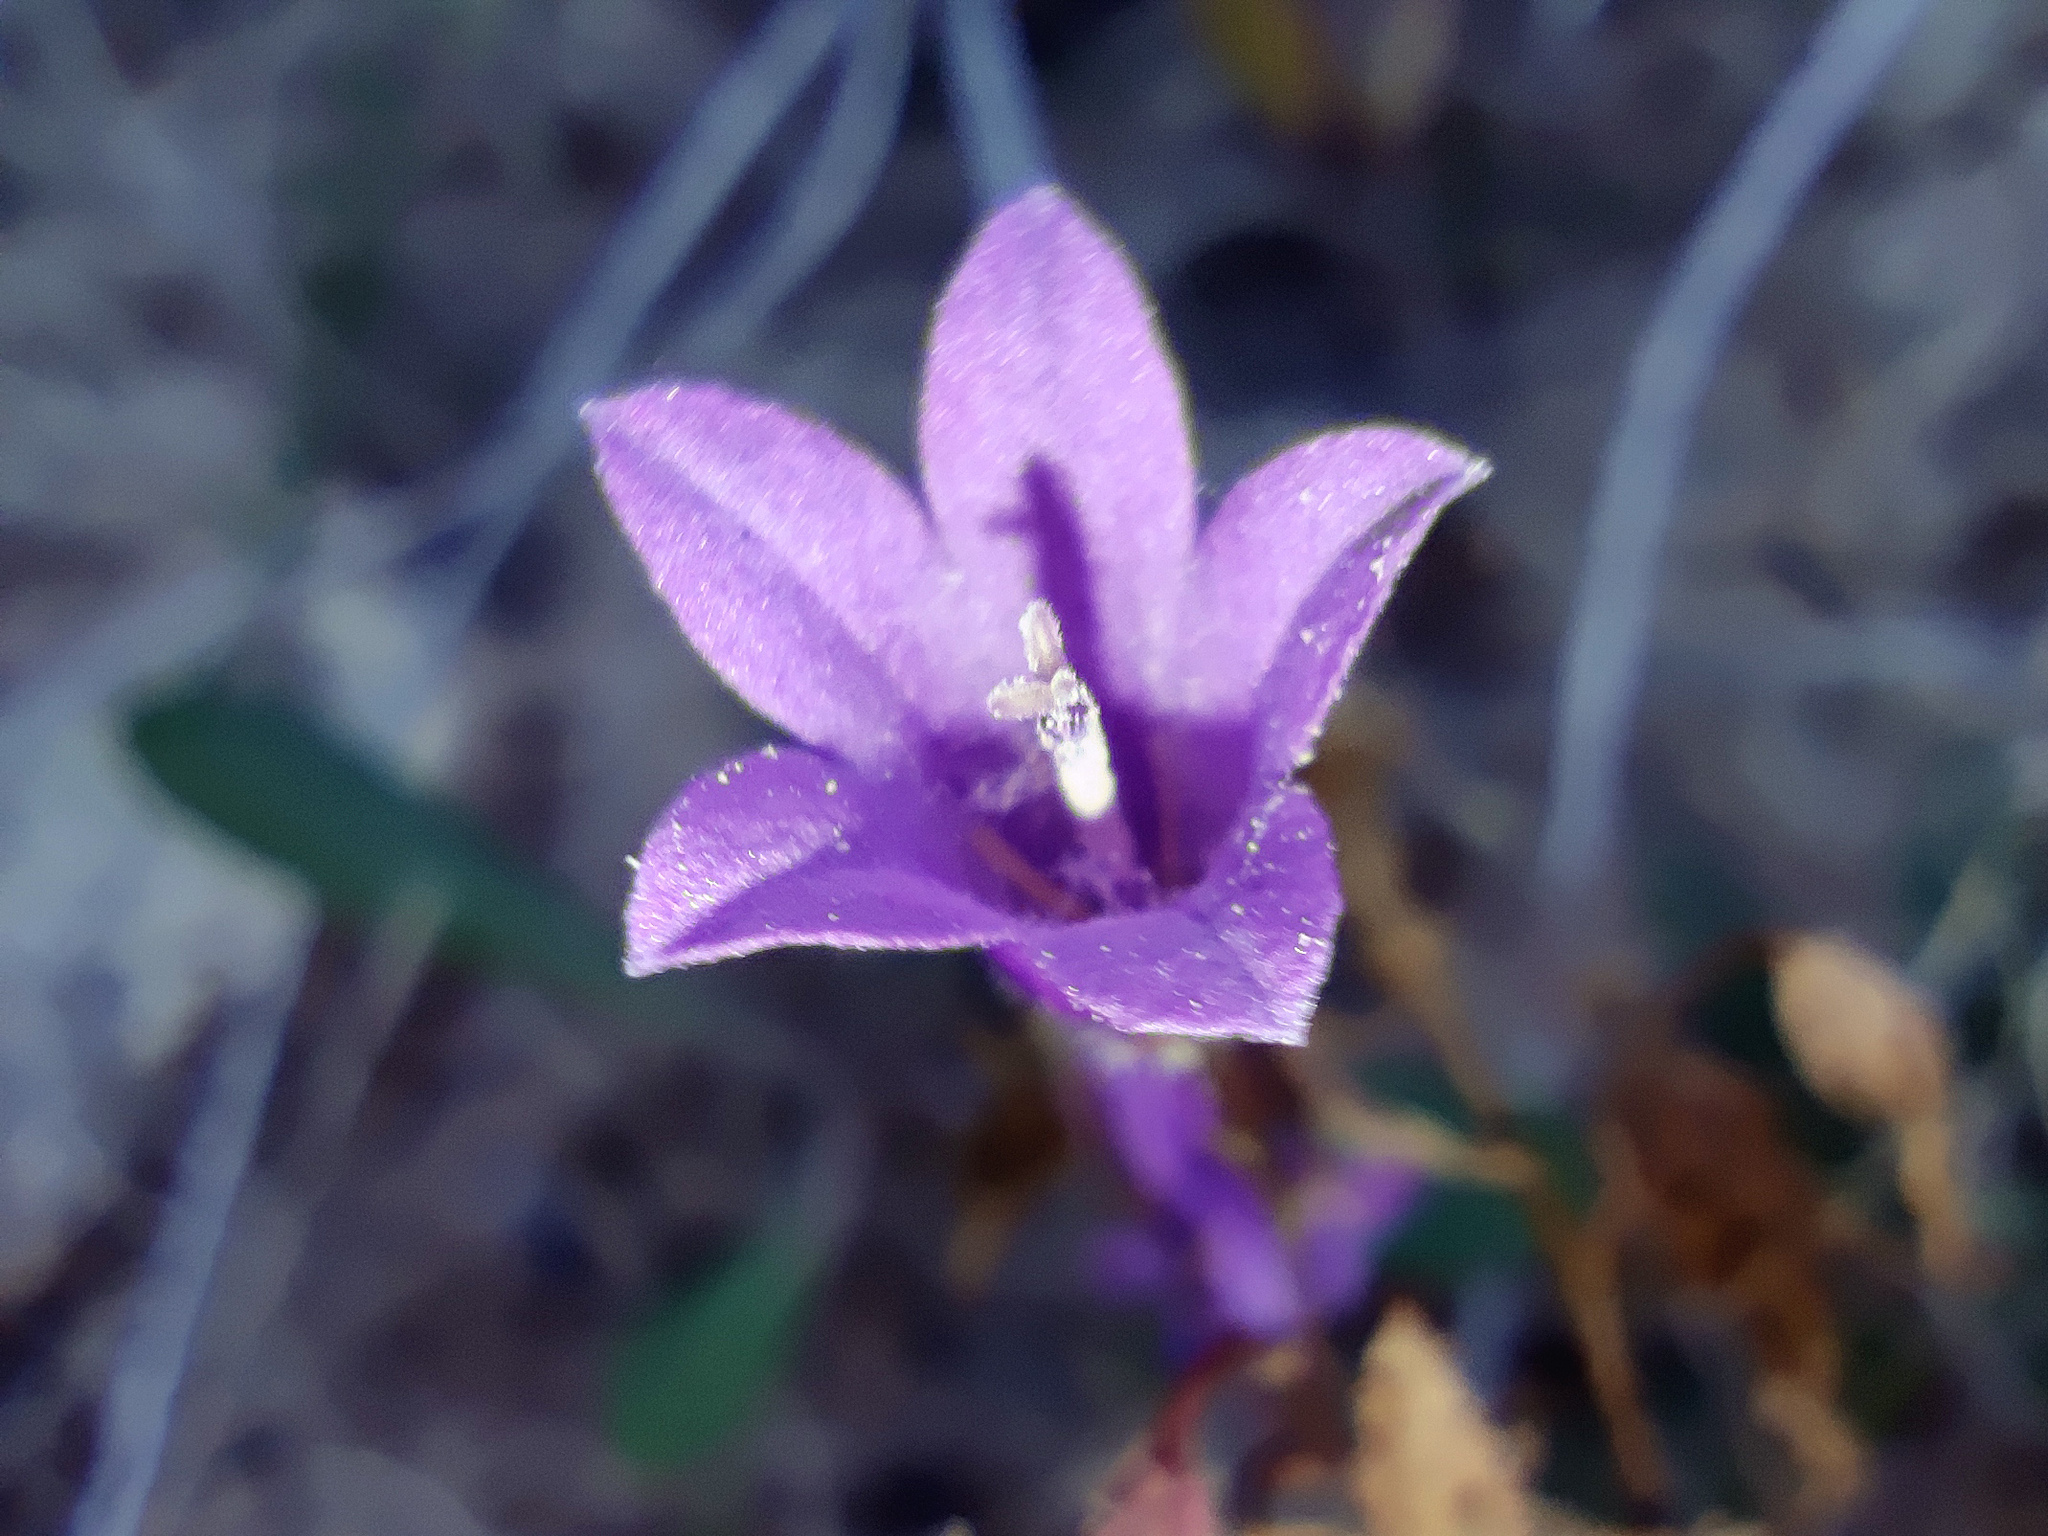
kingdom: Plantae
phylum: Tracheophyta
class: Magnoliopsida
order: Asterales
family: Campanulaceae
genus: Campanula
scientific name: Campanula sibirica
